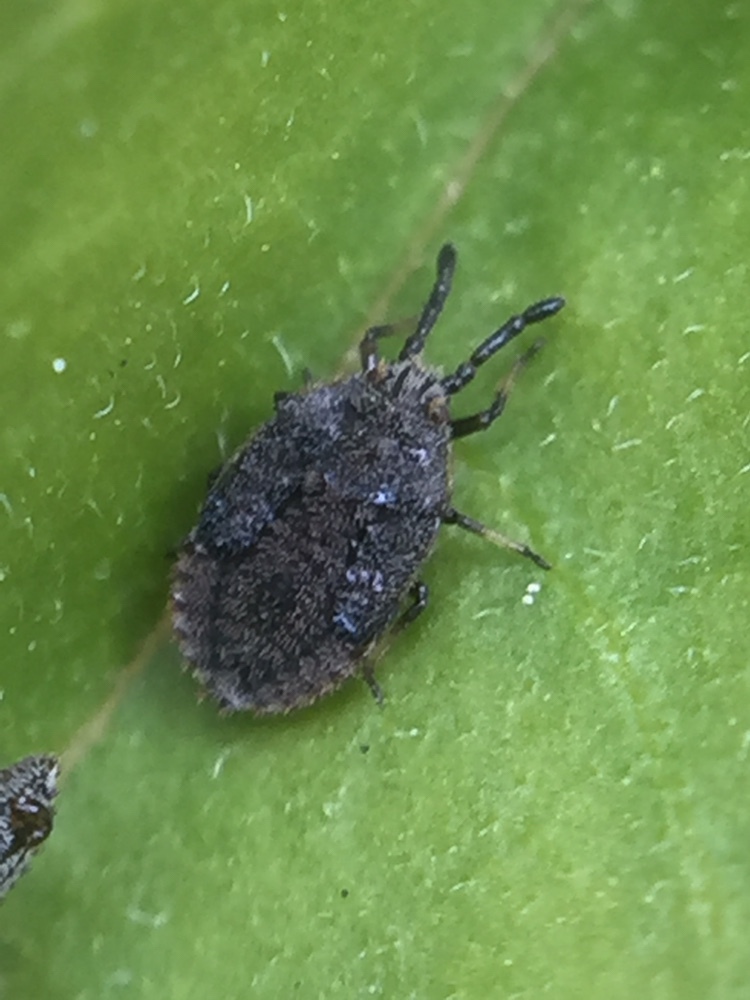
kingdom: Animalia
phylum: Arthropoda
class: Insecta
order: Hemiptera
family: Tingidae
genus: Leptoypha
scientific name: Leptoypha hospita
